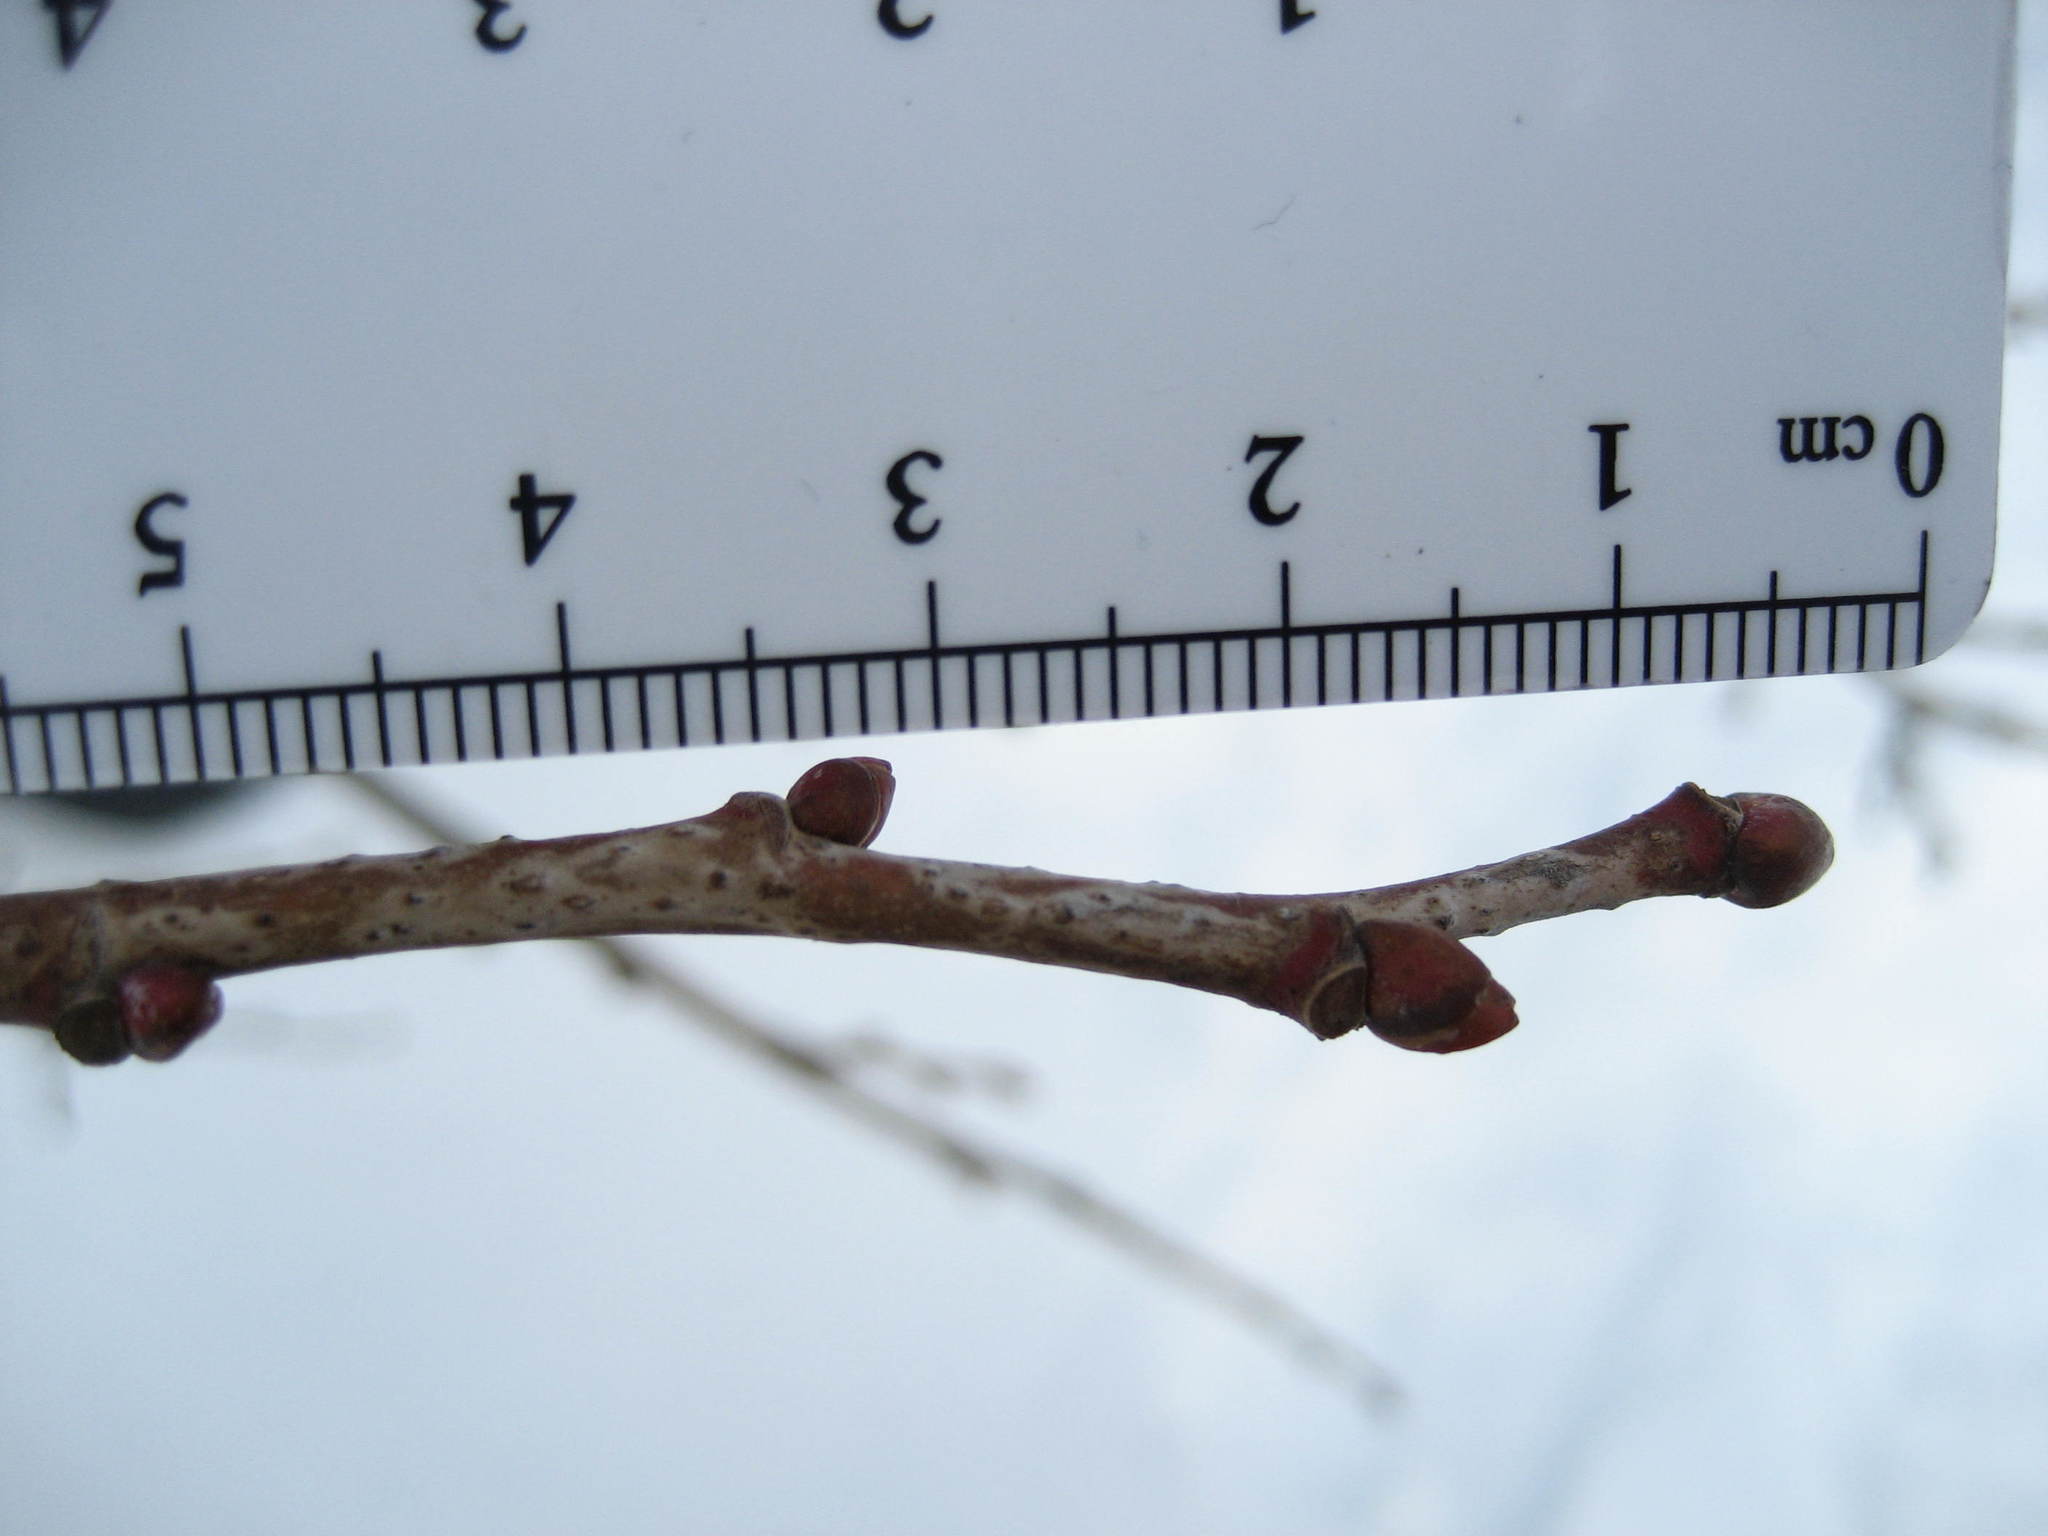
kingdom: Plantae
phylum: Tracheophyta
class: Magnoliopsida
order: Malvales
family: Malvaceae
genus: Tilia
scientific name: Tilia americana
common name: Basswood
